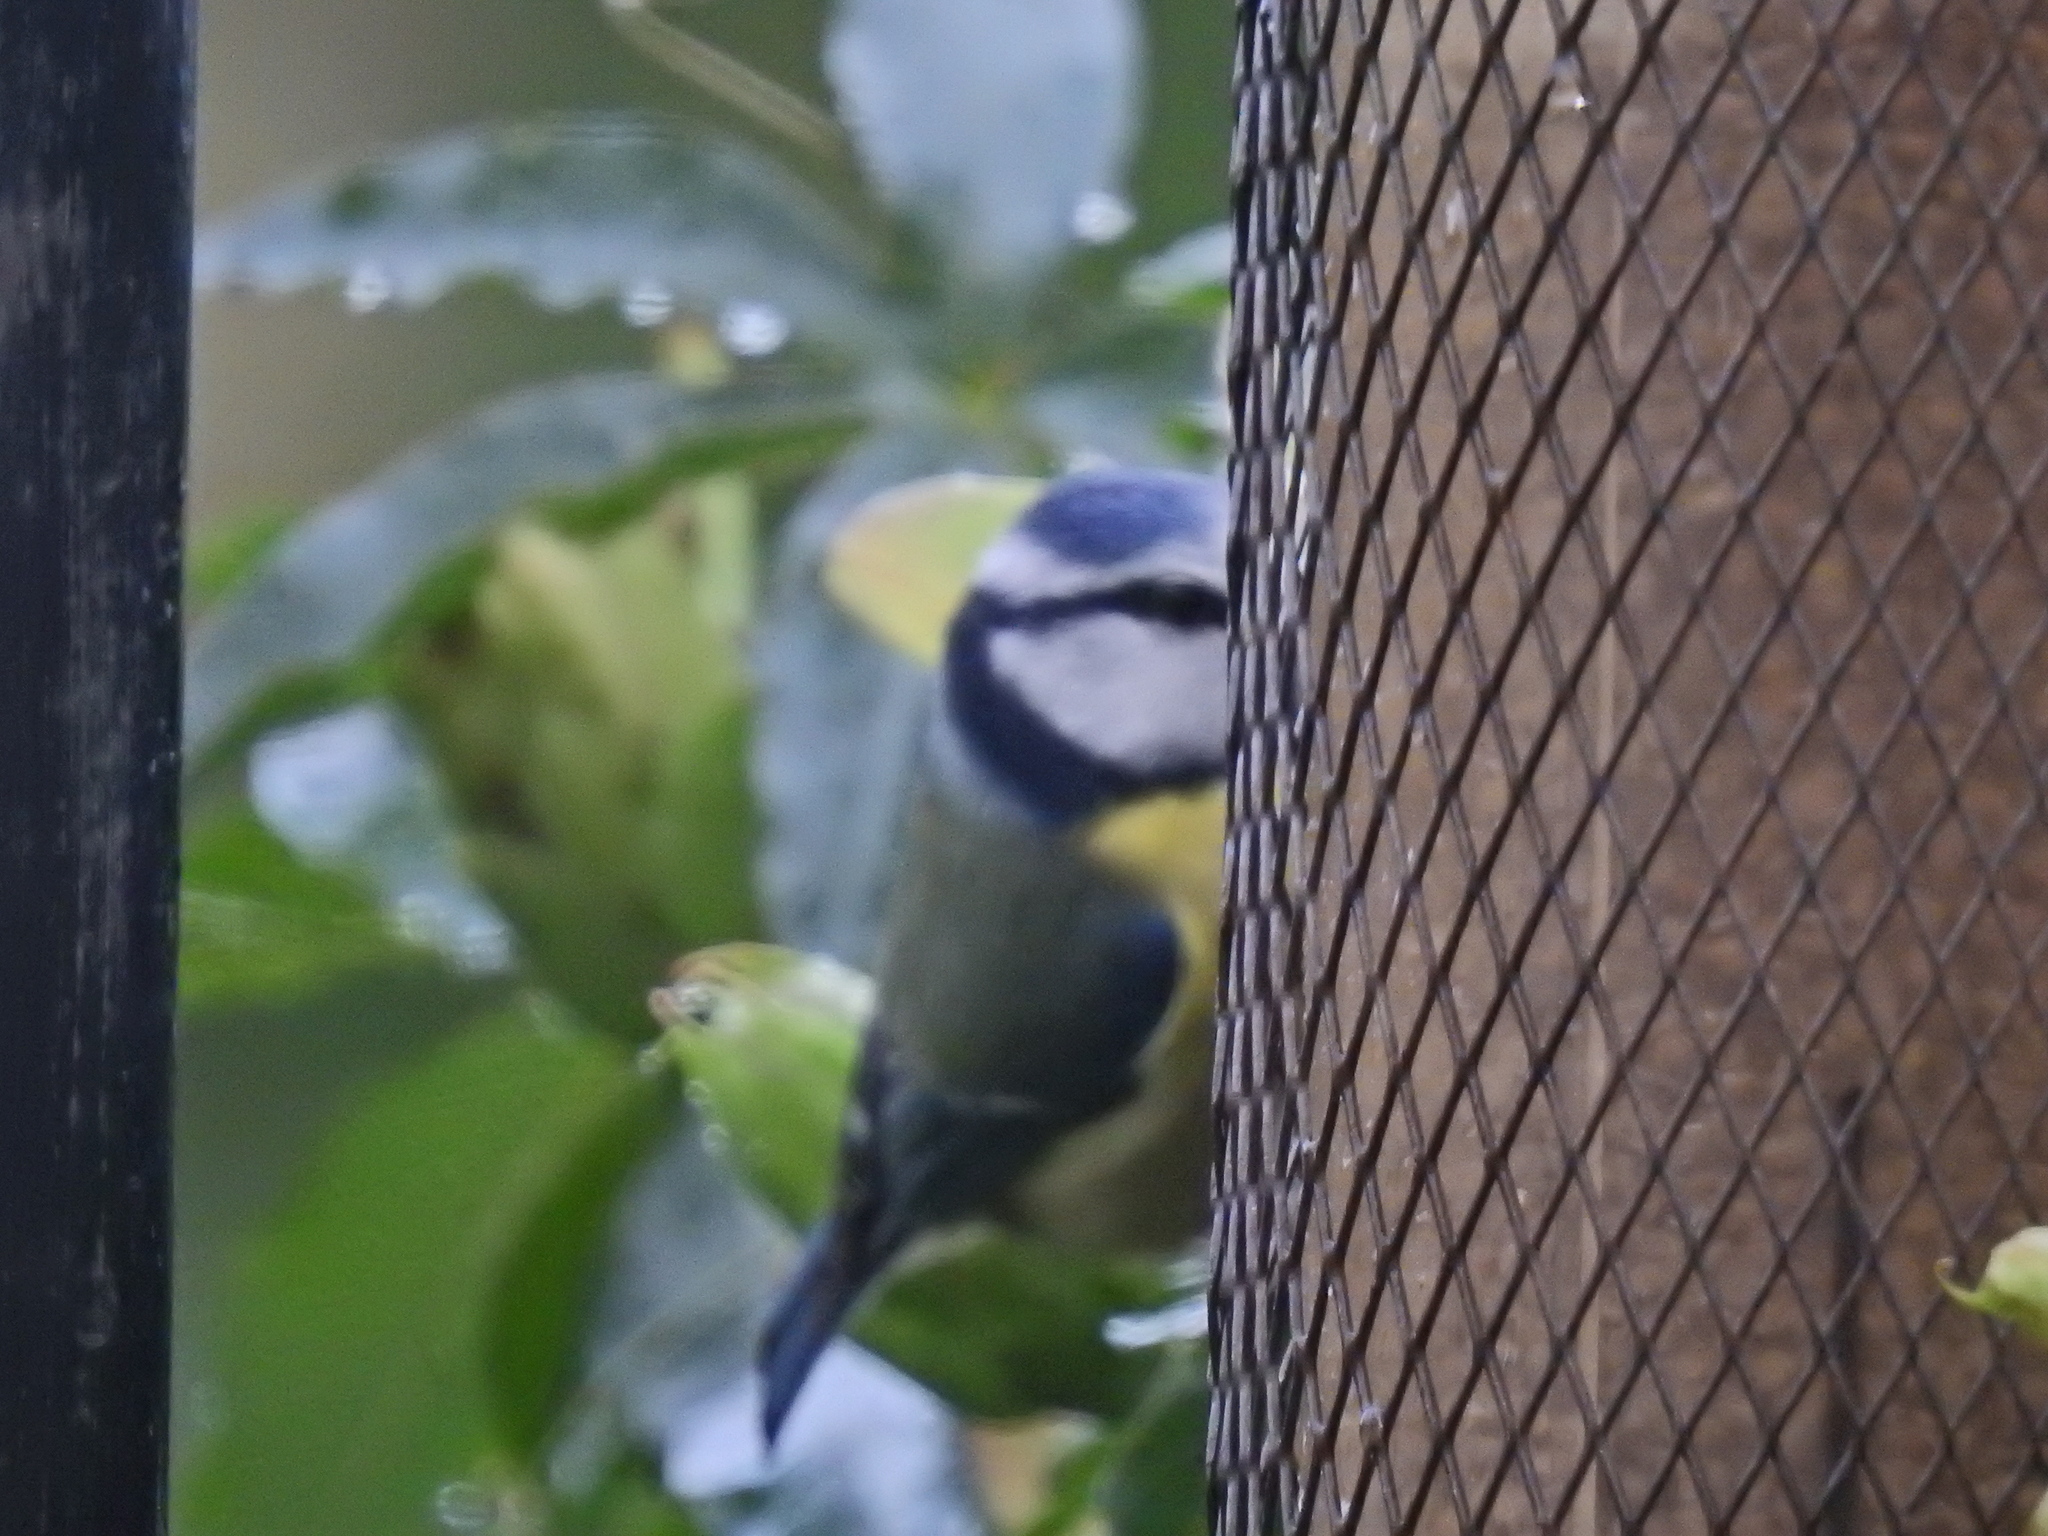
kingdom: Animalia
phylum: Chordata
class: Aves
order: Passeriformes
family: Paridae
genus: Cyanistes
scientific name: Cyanistes caeruleus
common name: Eurasian blue tit
